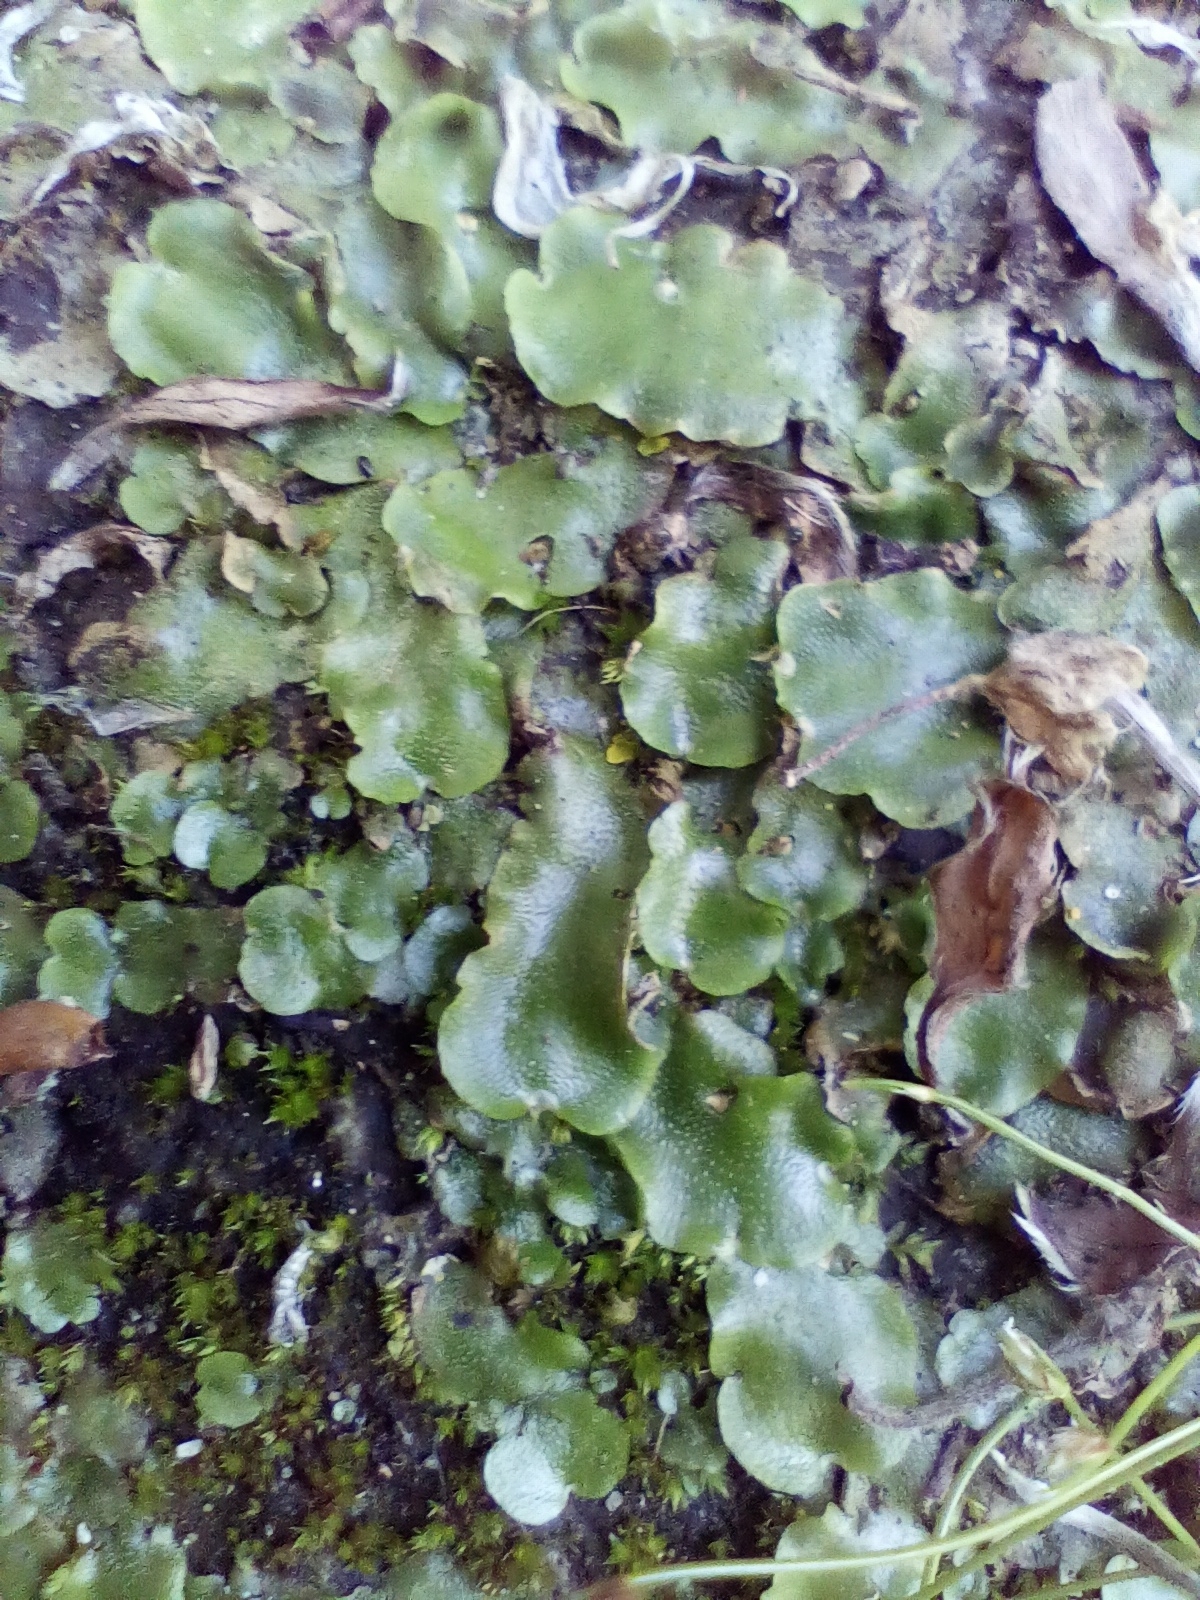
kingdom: Plantae
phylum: Marchantiophyta
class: Marchantiopsida
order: Lunulariales
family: Lunulariaceae
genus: Lunularia
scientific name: Lunularia cruciata
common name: Crescent-cup liverwort
